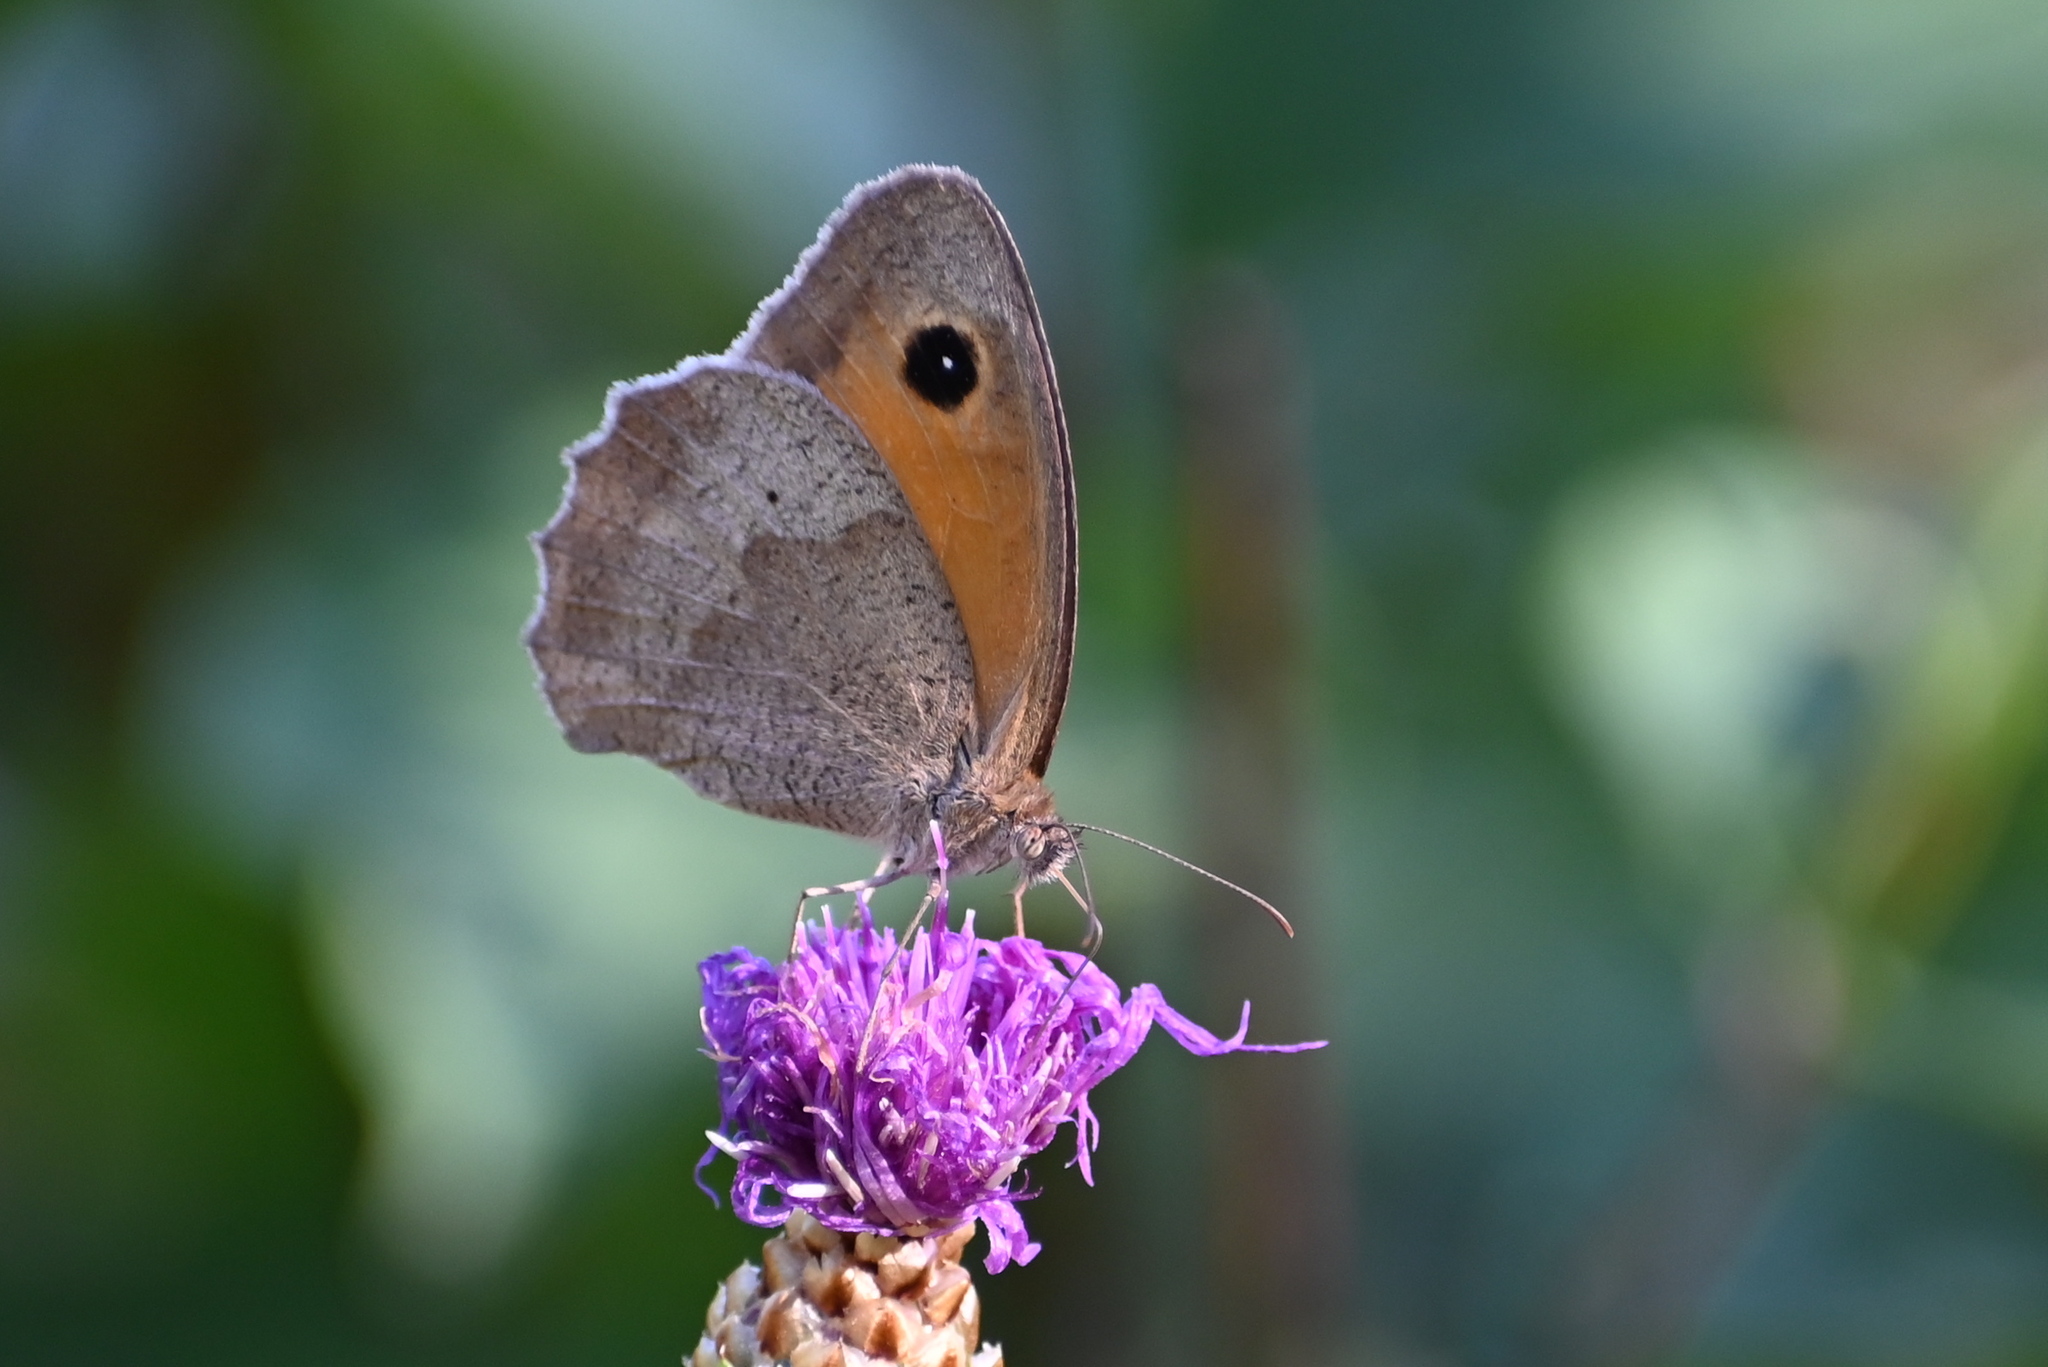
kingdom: Animalia
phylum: Arthropoda
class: Insecta
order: Lepidoptera
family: Nymphalidae
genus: Maniola
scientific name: Maniola jurtina
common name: Meadow brown
